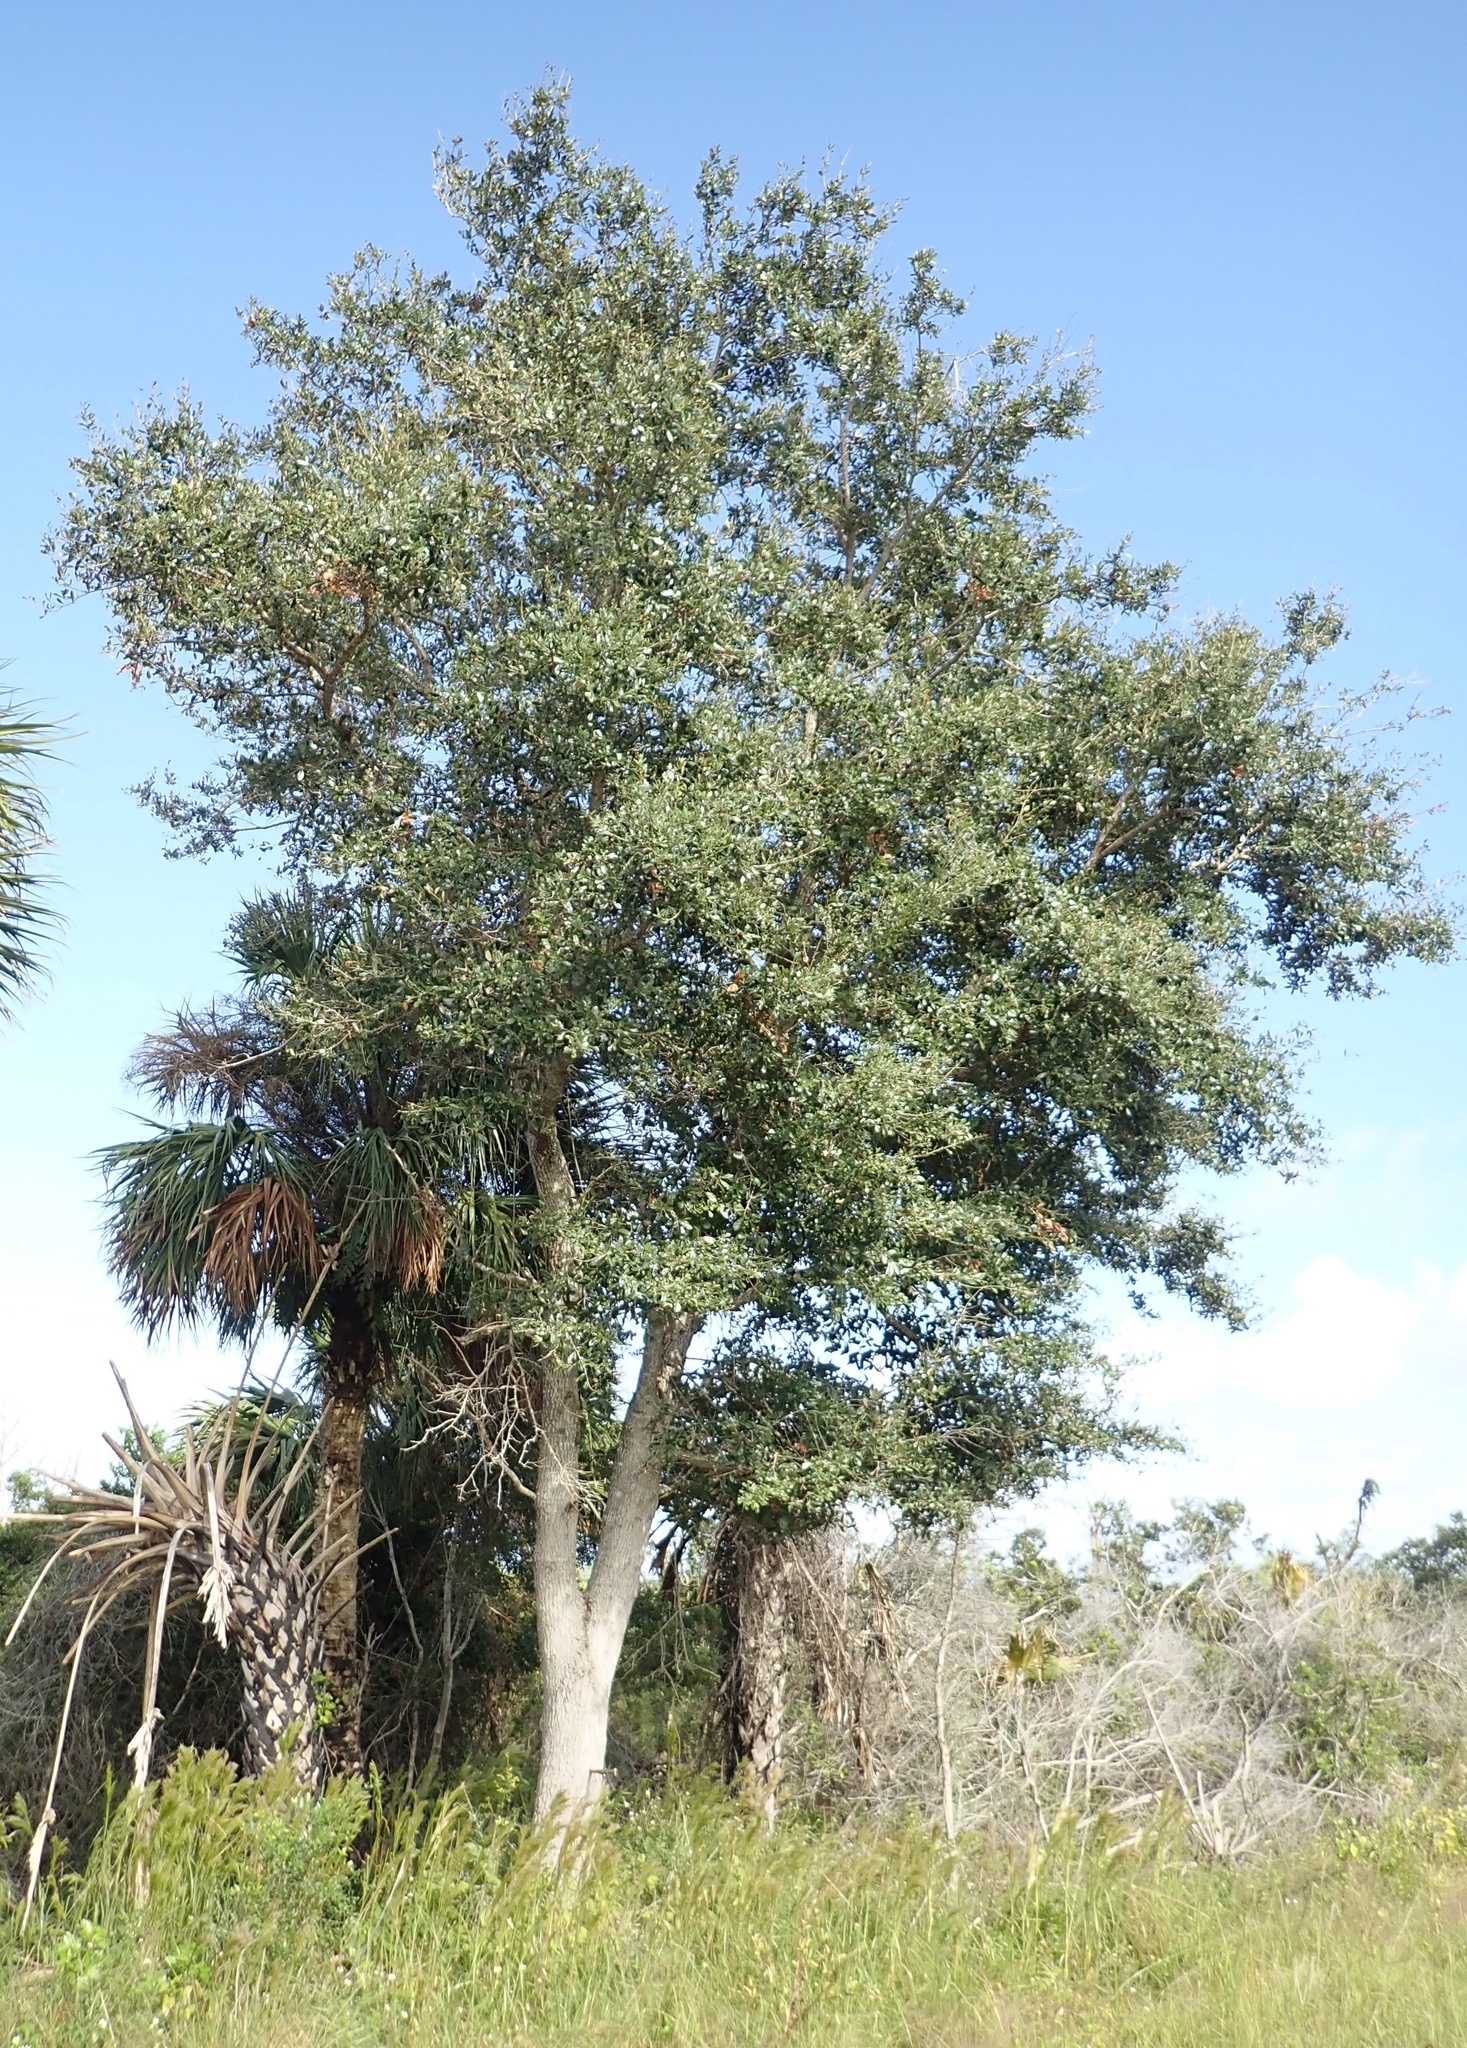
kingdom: Plantae
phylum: Tracheophyta
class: Magnoliopsida
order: Fagales
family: Fagaceae
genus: Quercus
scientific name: Quercus virginiana
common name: Southern live oak
